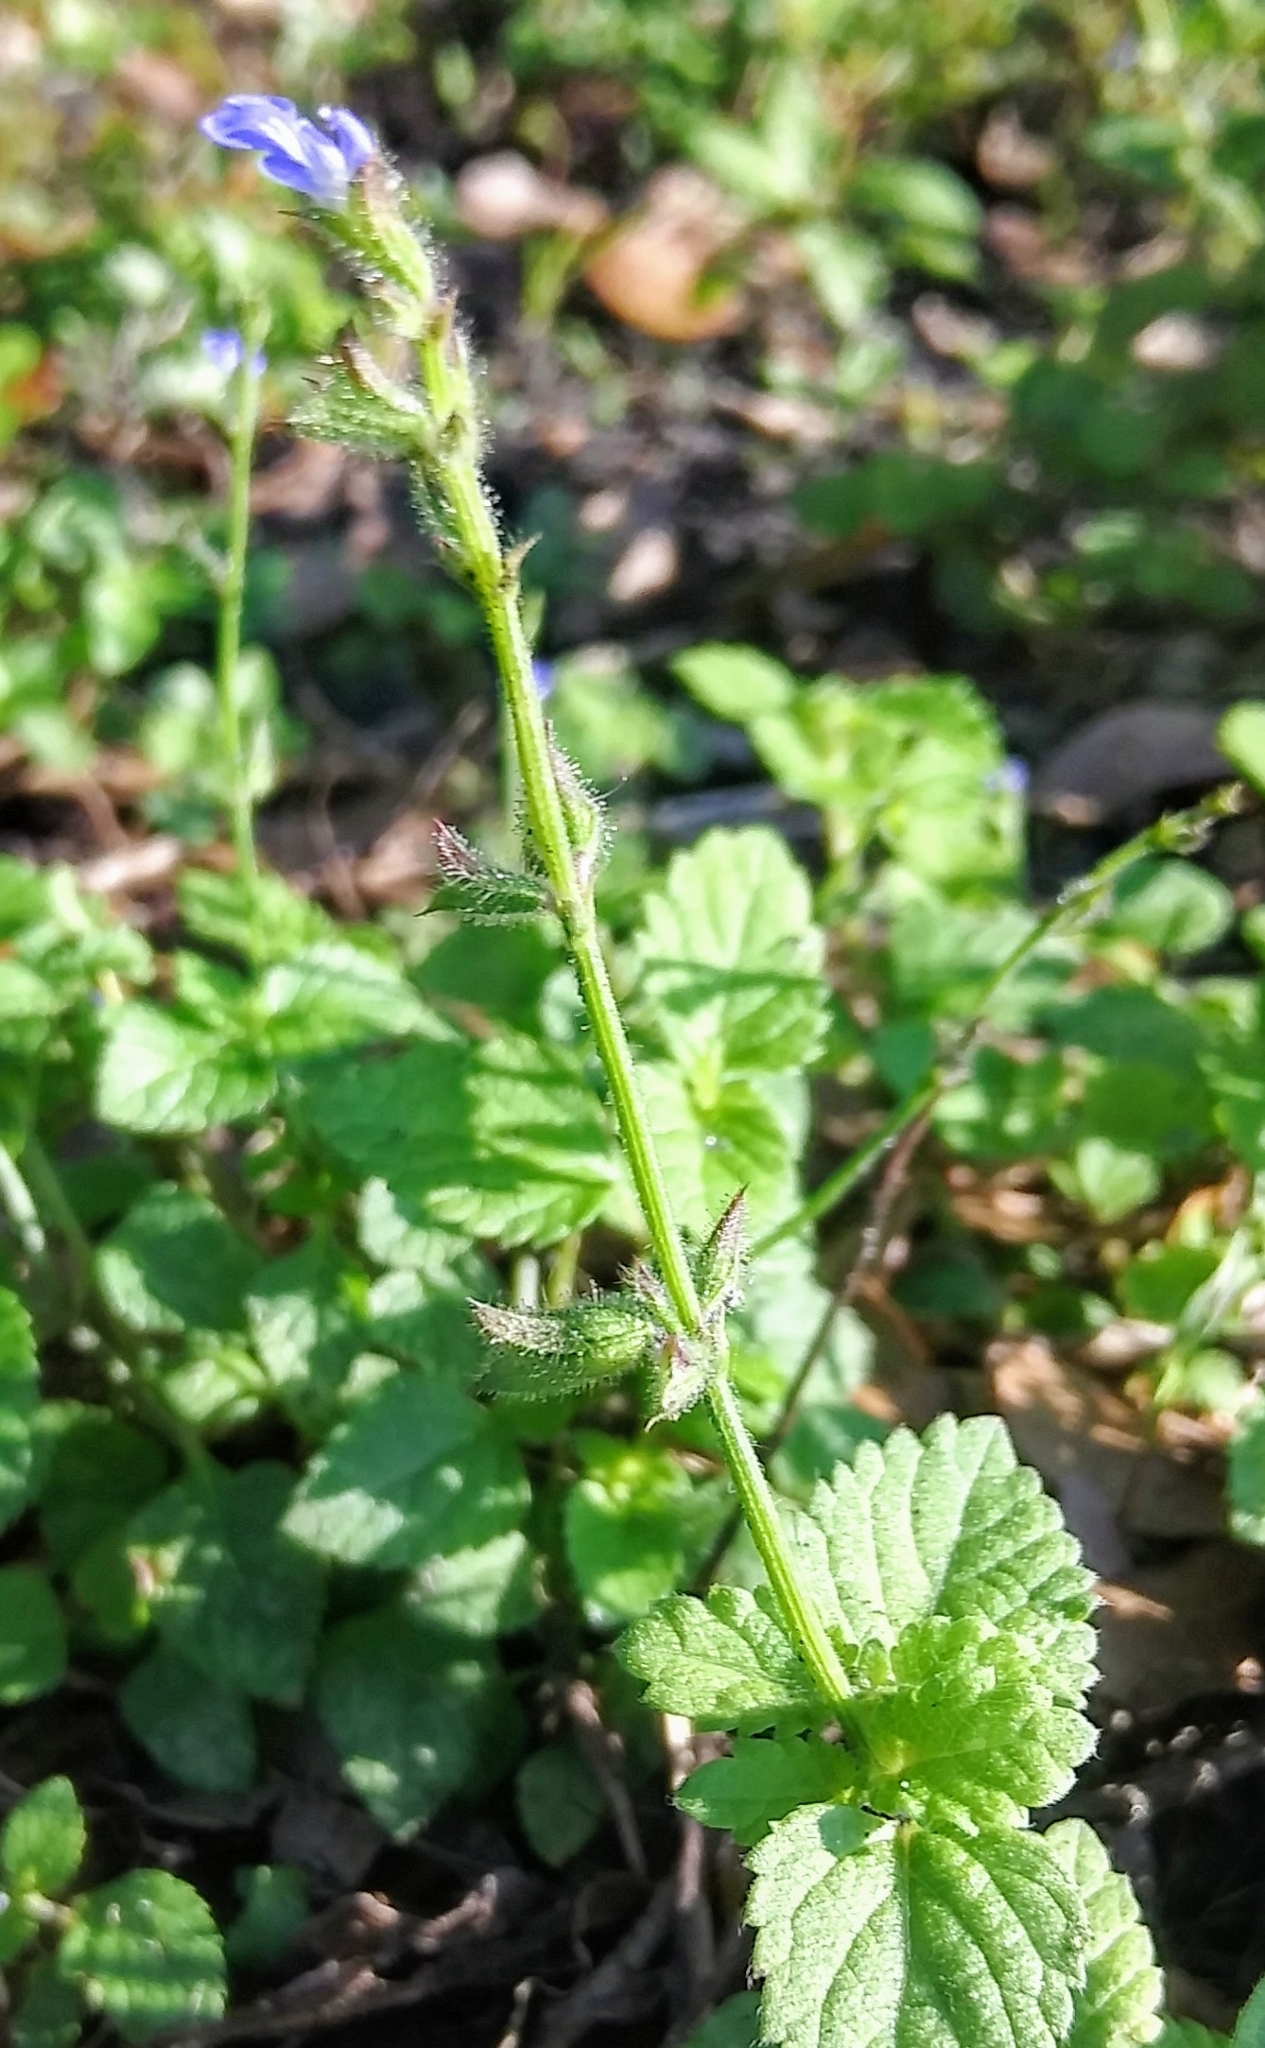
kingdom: Plantae
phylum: Tracheophyta
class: Magnoliopsida
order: Lamiales
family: Lamiaceae
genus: Salvia
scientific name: Salvia misella
